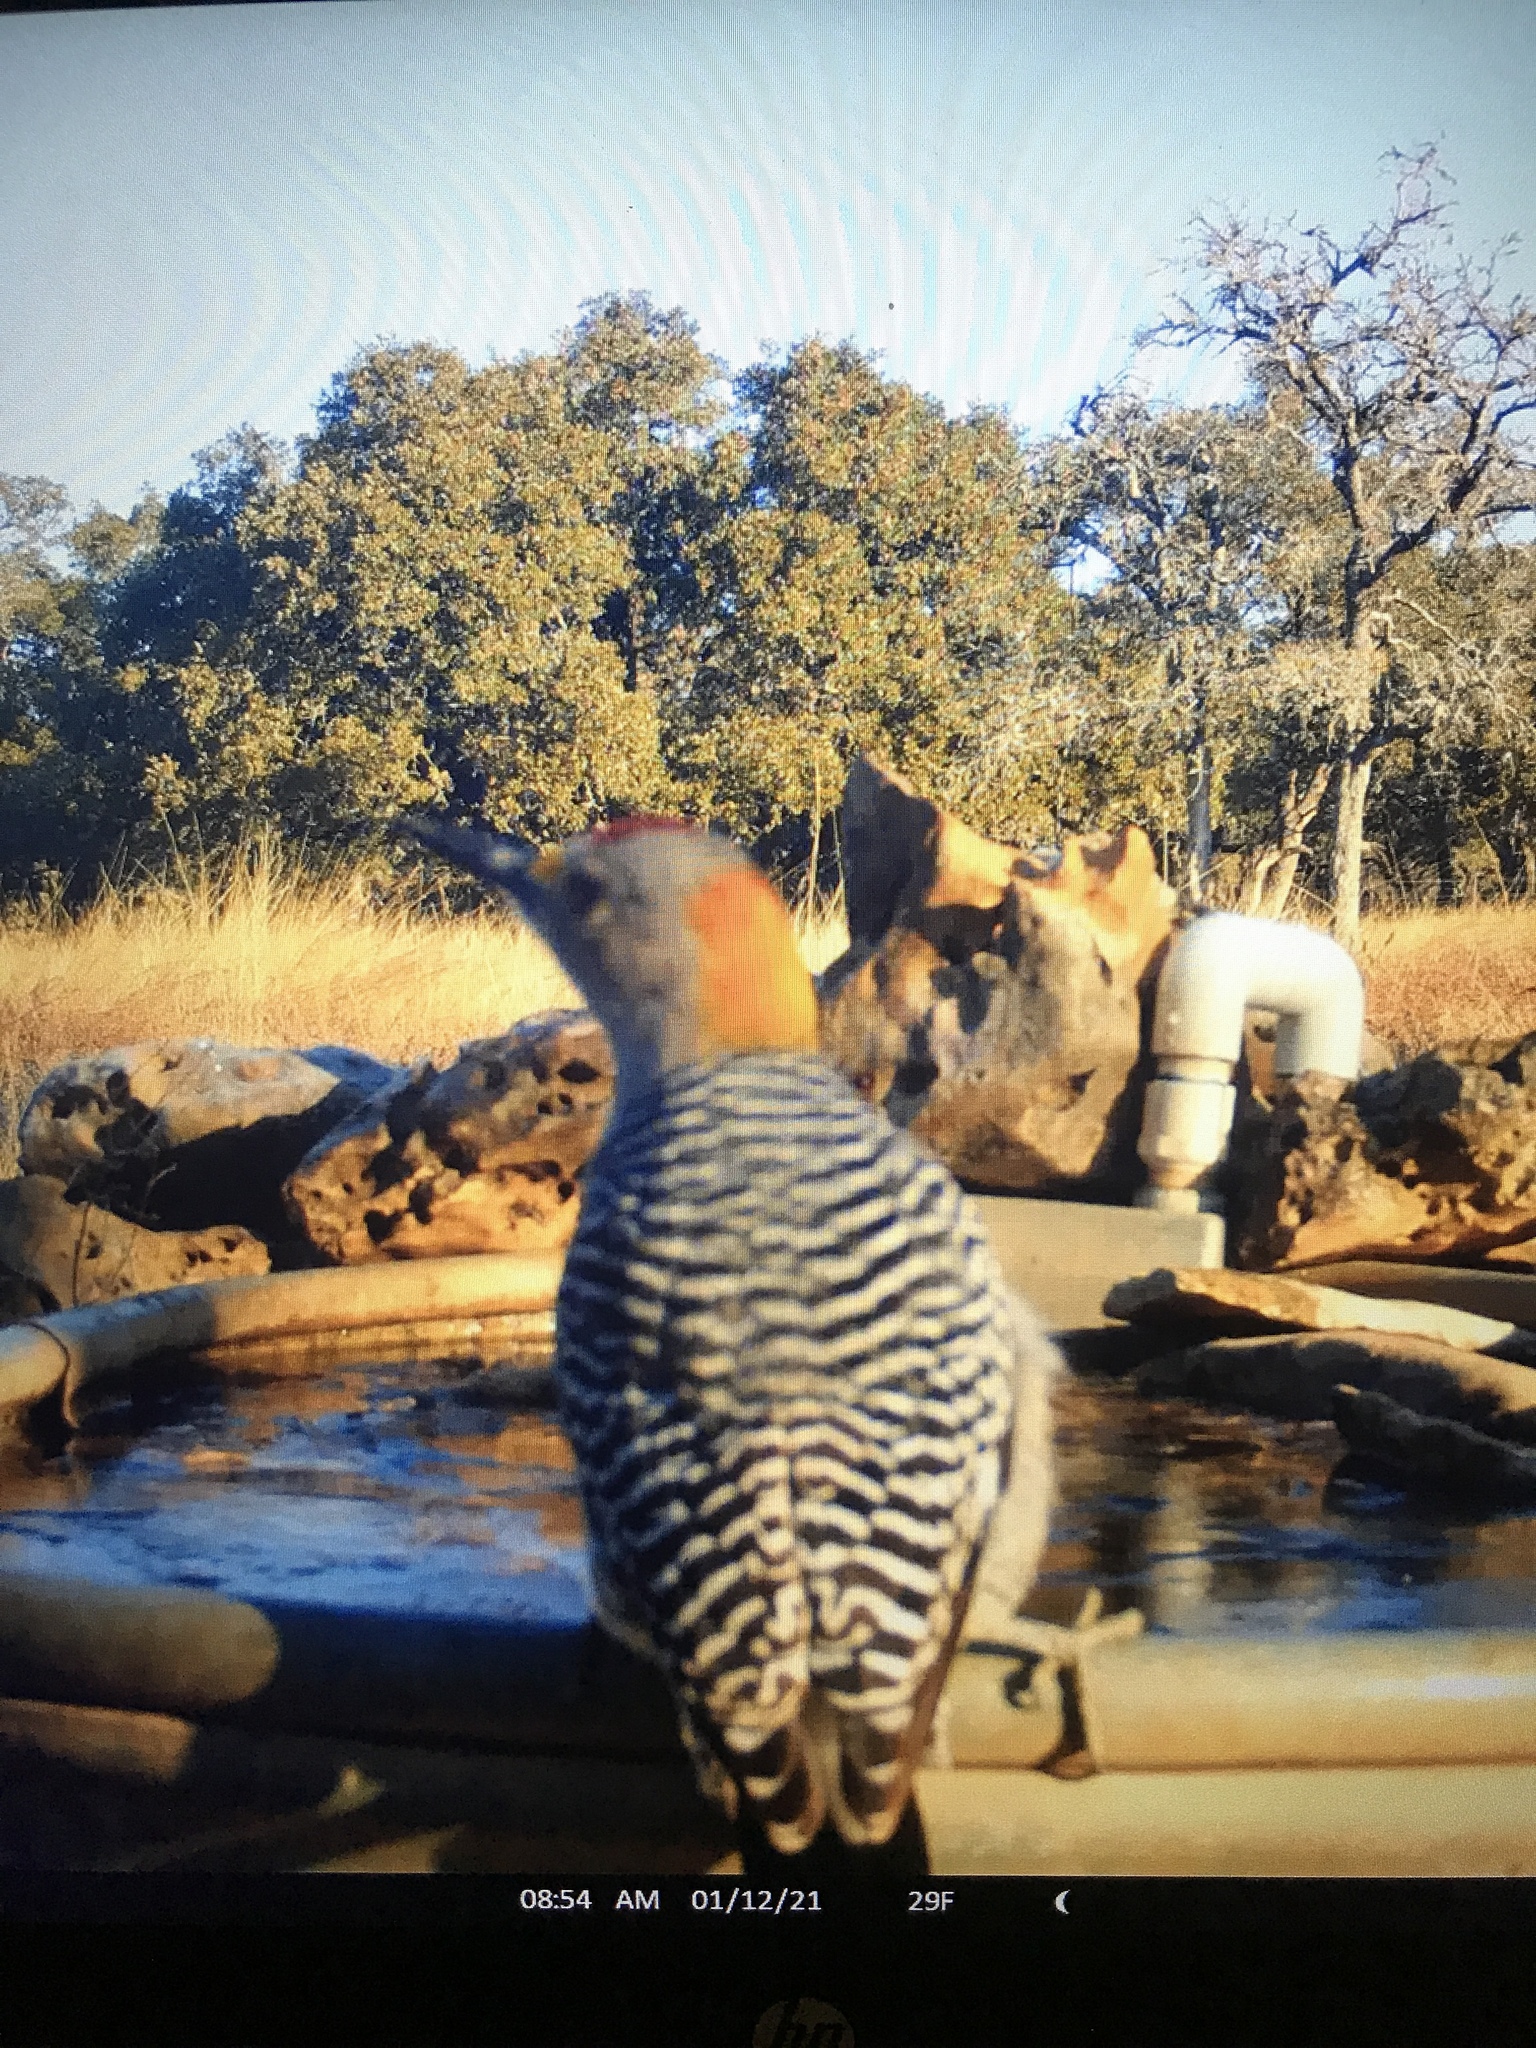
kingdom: Animalia
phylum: Chordata
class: Aves
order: Piciformes
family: Picidae
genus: Melanerpes
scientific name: Melanerpes aurifrons
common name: Golden-fronted woodpecker
